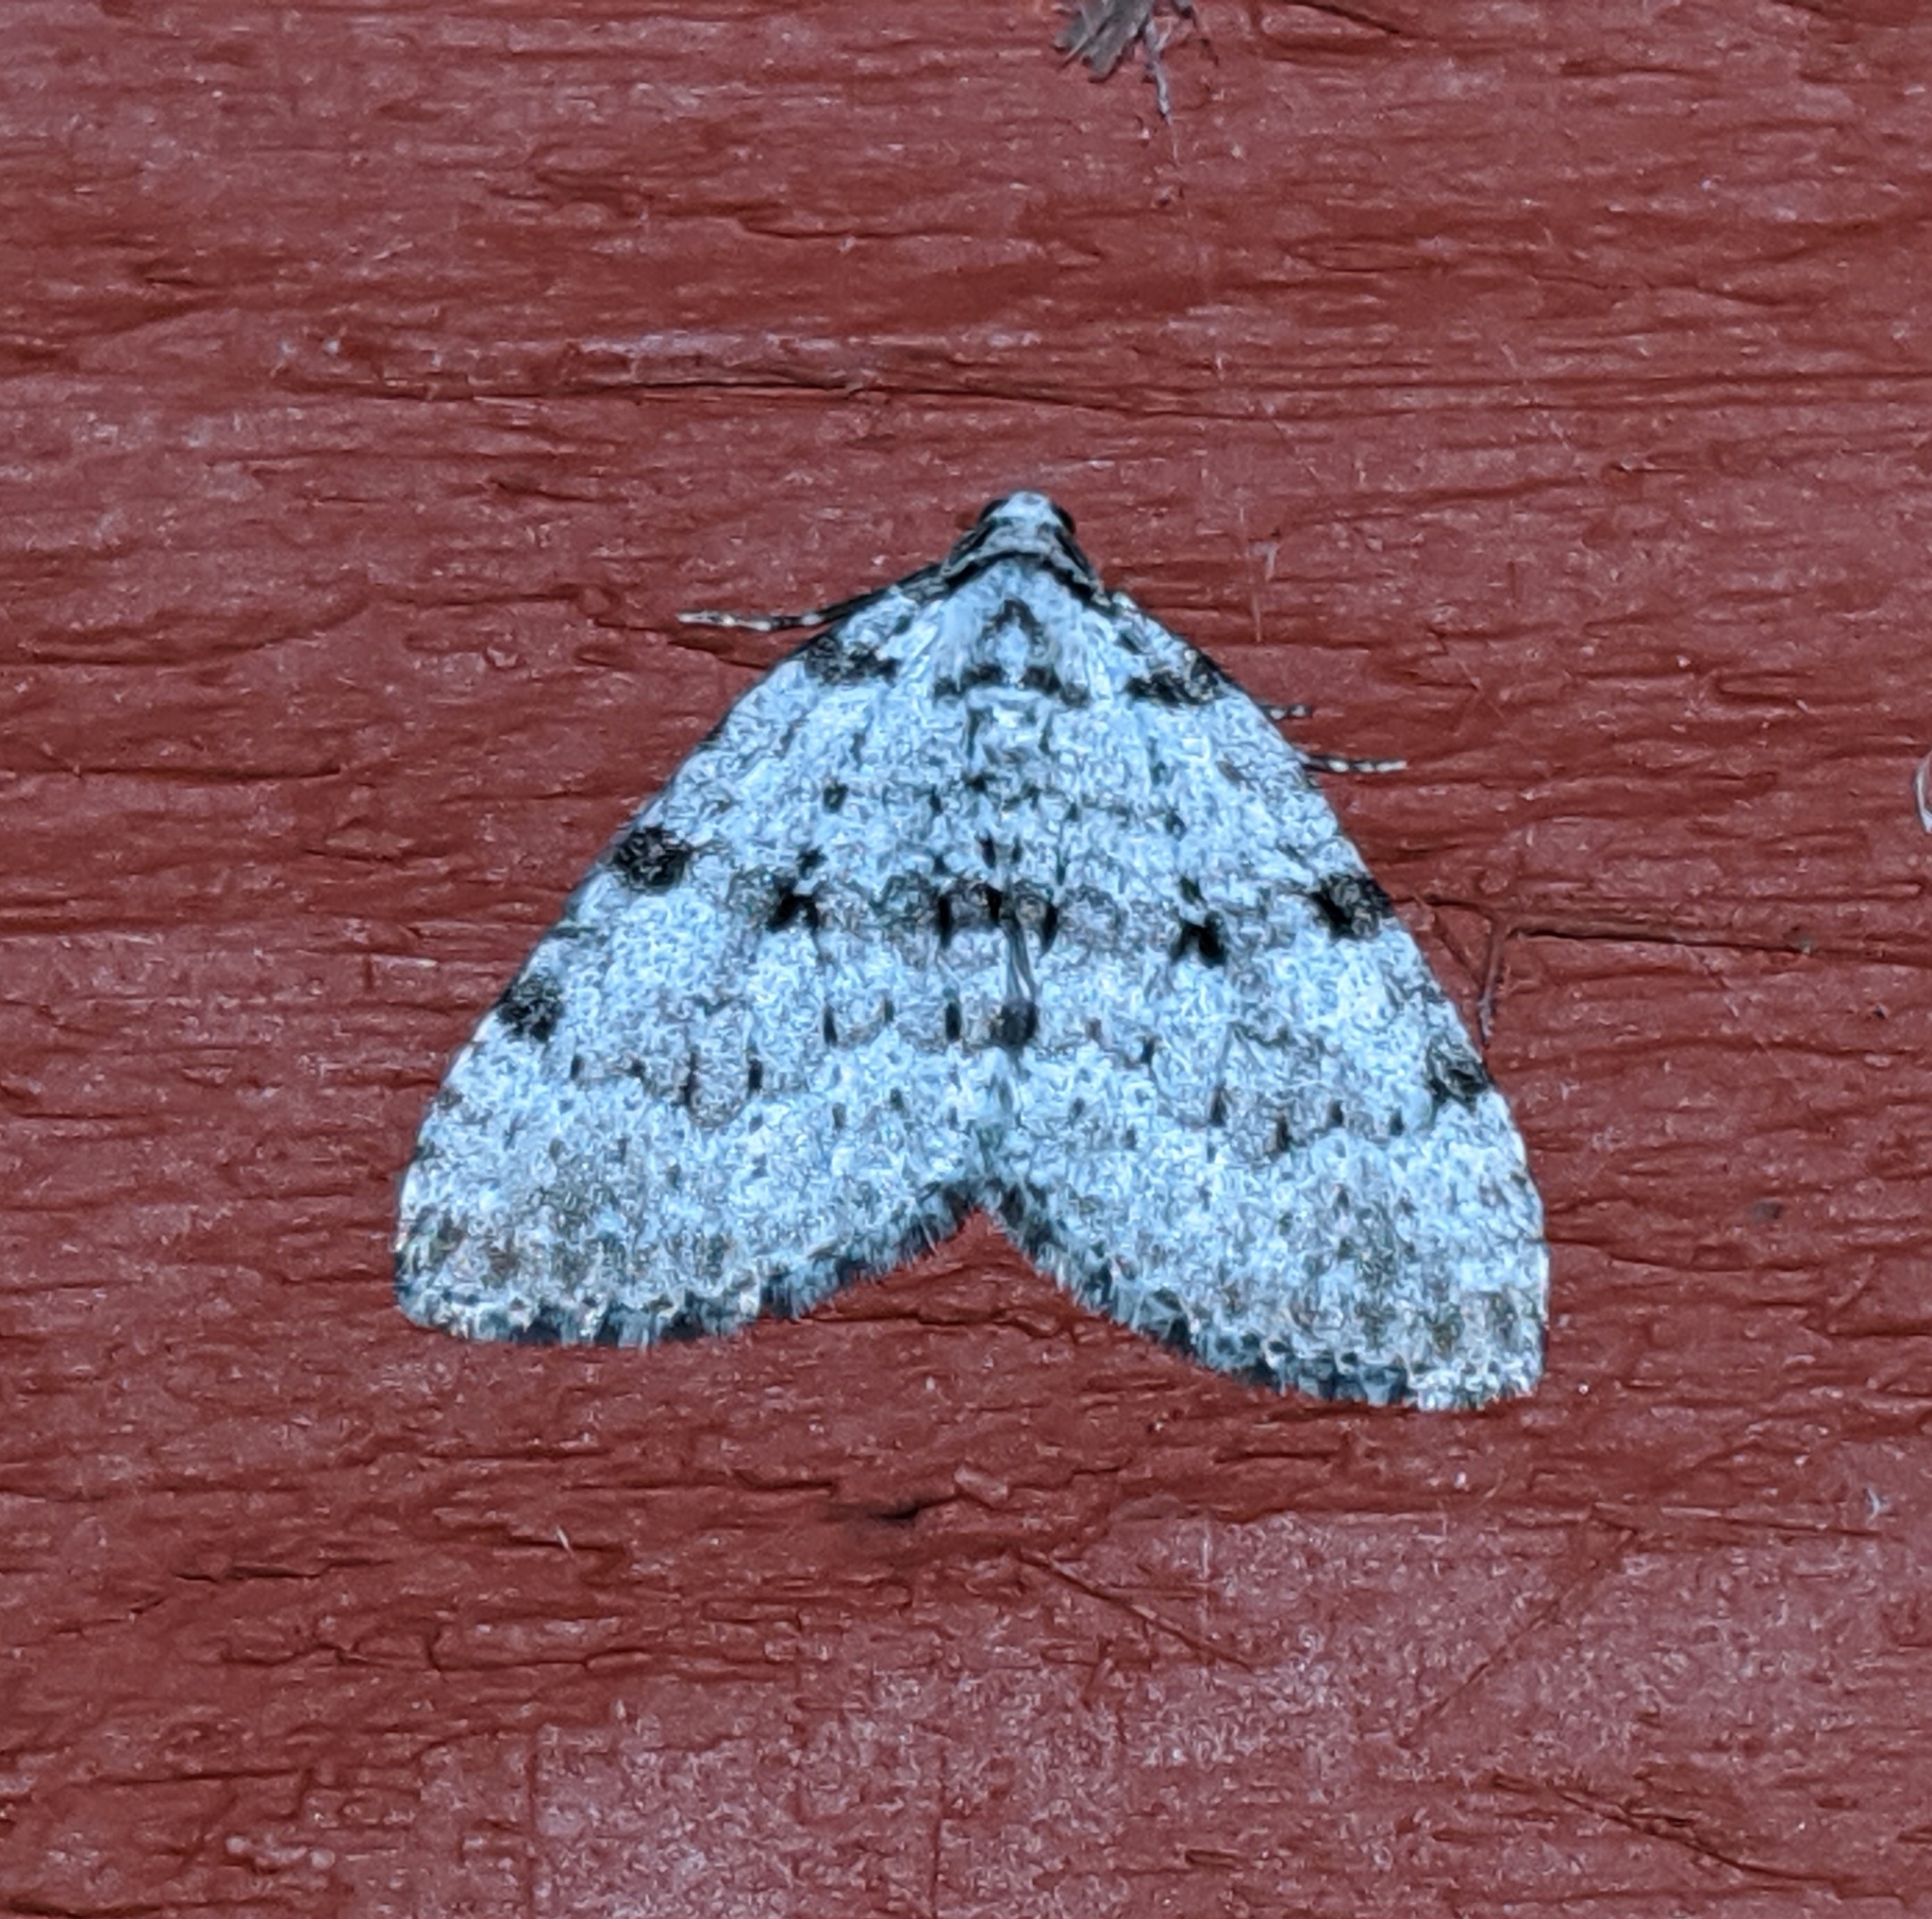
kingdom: Animalia
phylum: Arthropoda
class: Insecta
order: Lepidoptera
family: Geometridae
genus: Perizoma
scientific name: Perizoma curvilinea
